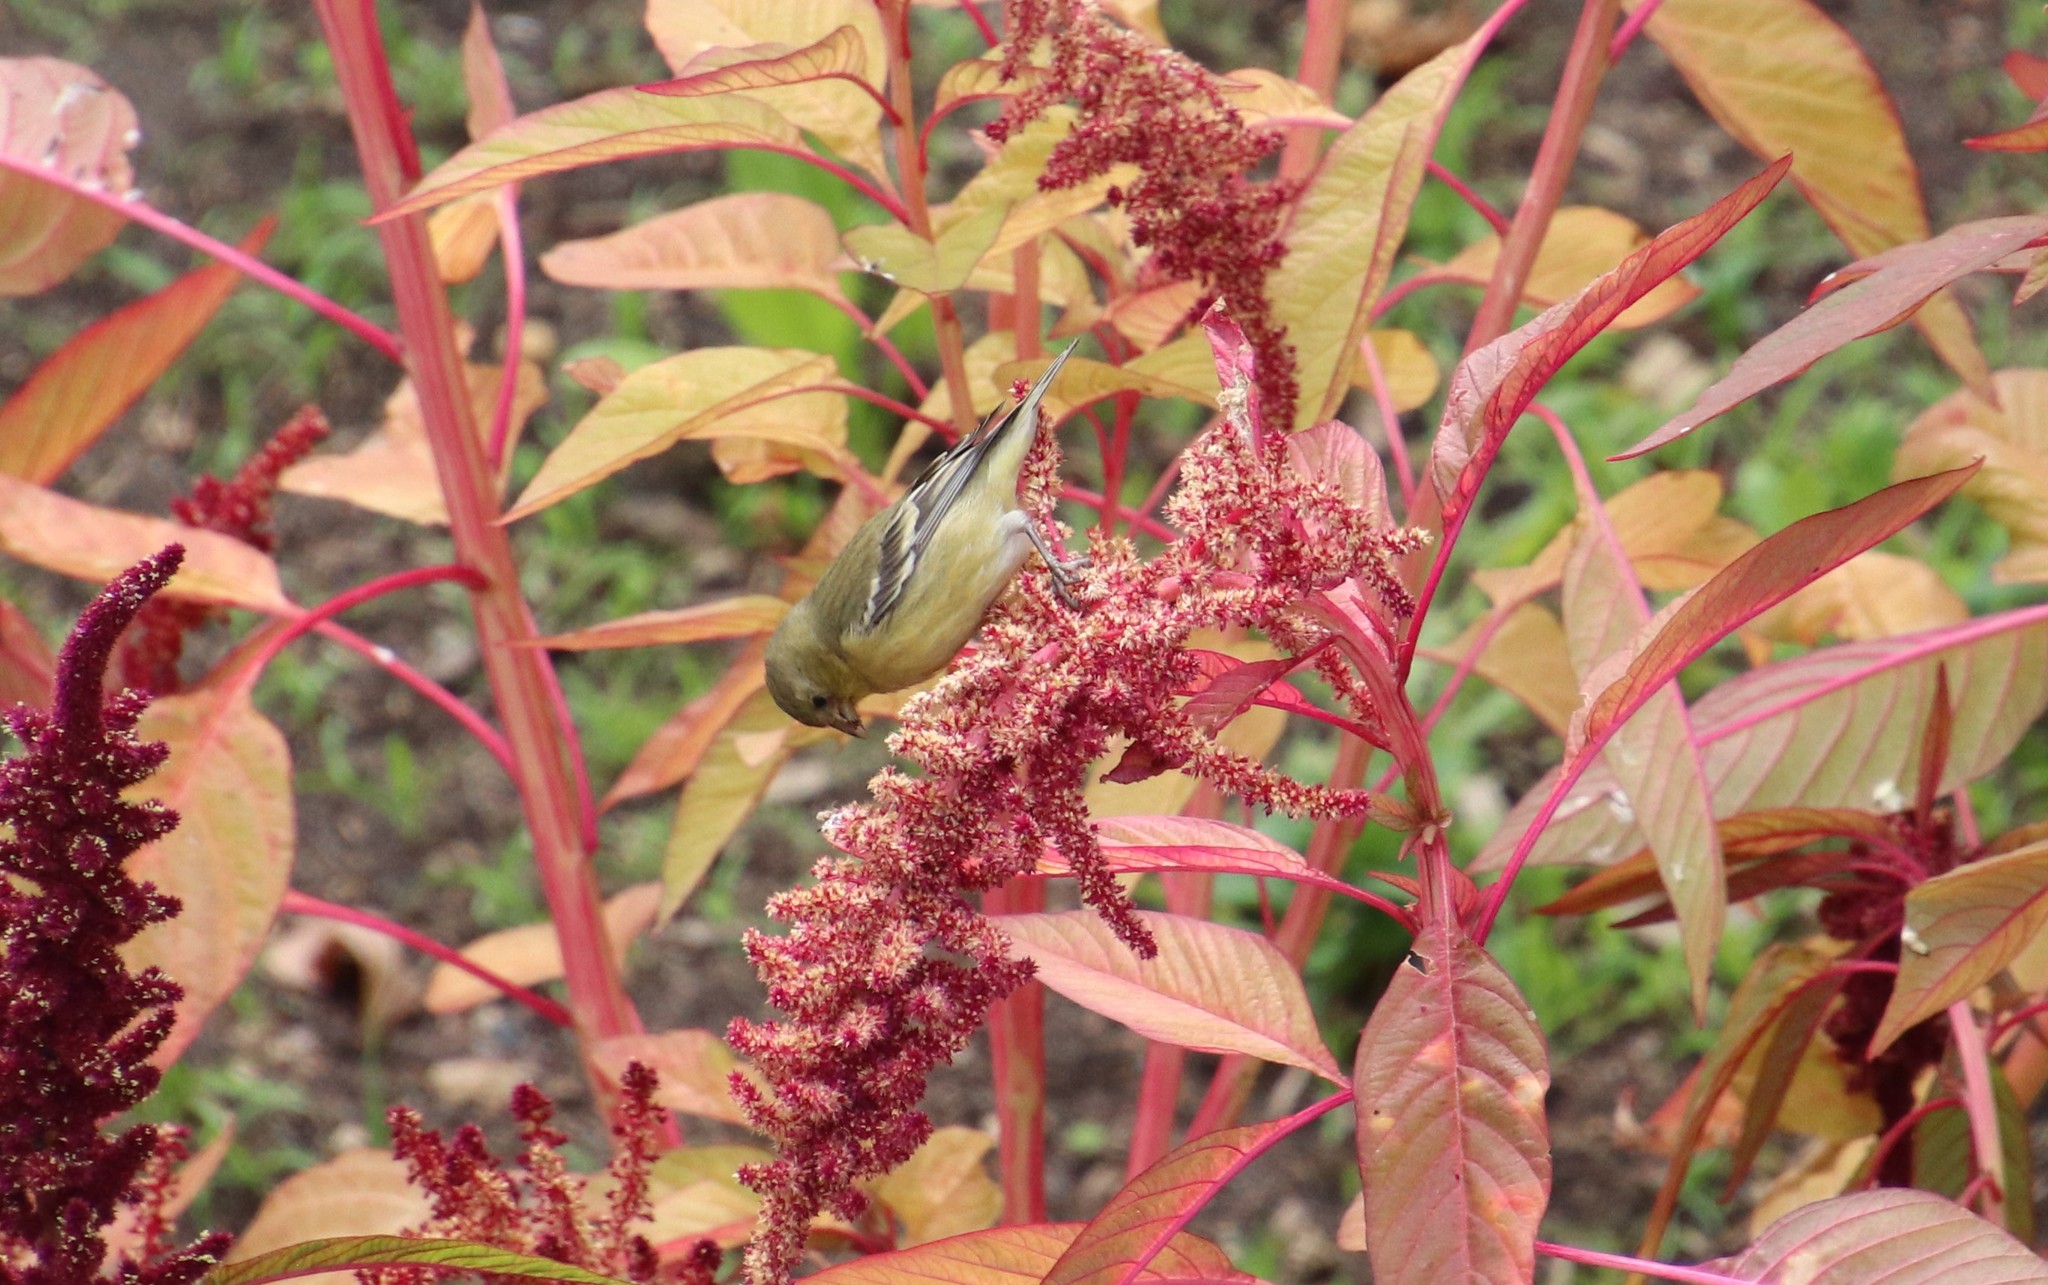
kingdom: Animalia
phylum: Chordata
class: Aves
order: Passeriformes
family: Fringillidae
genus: Spinus
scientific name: Spinus psaltria
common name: Lesser goldfinch
